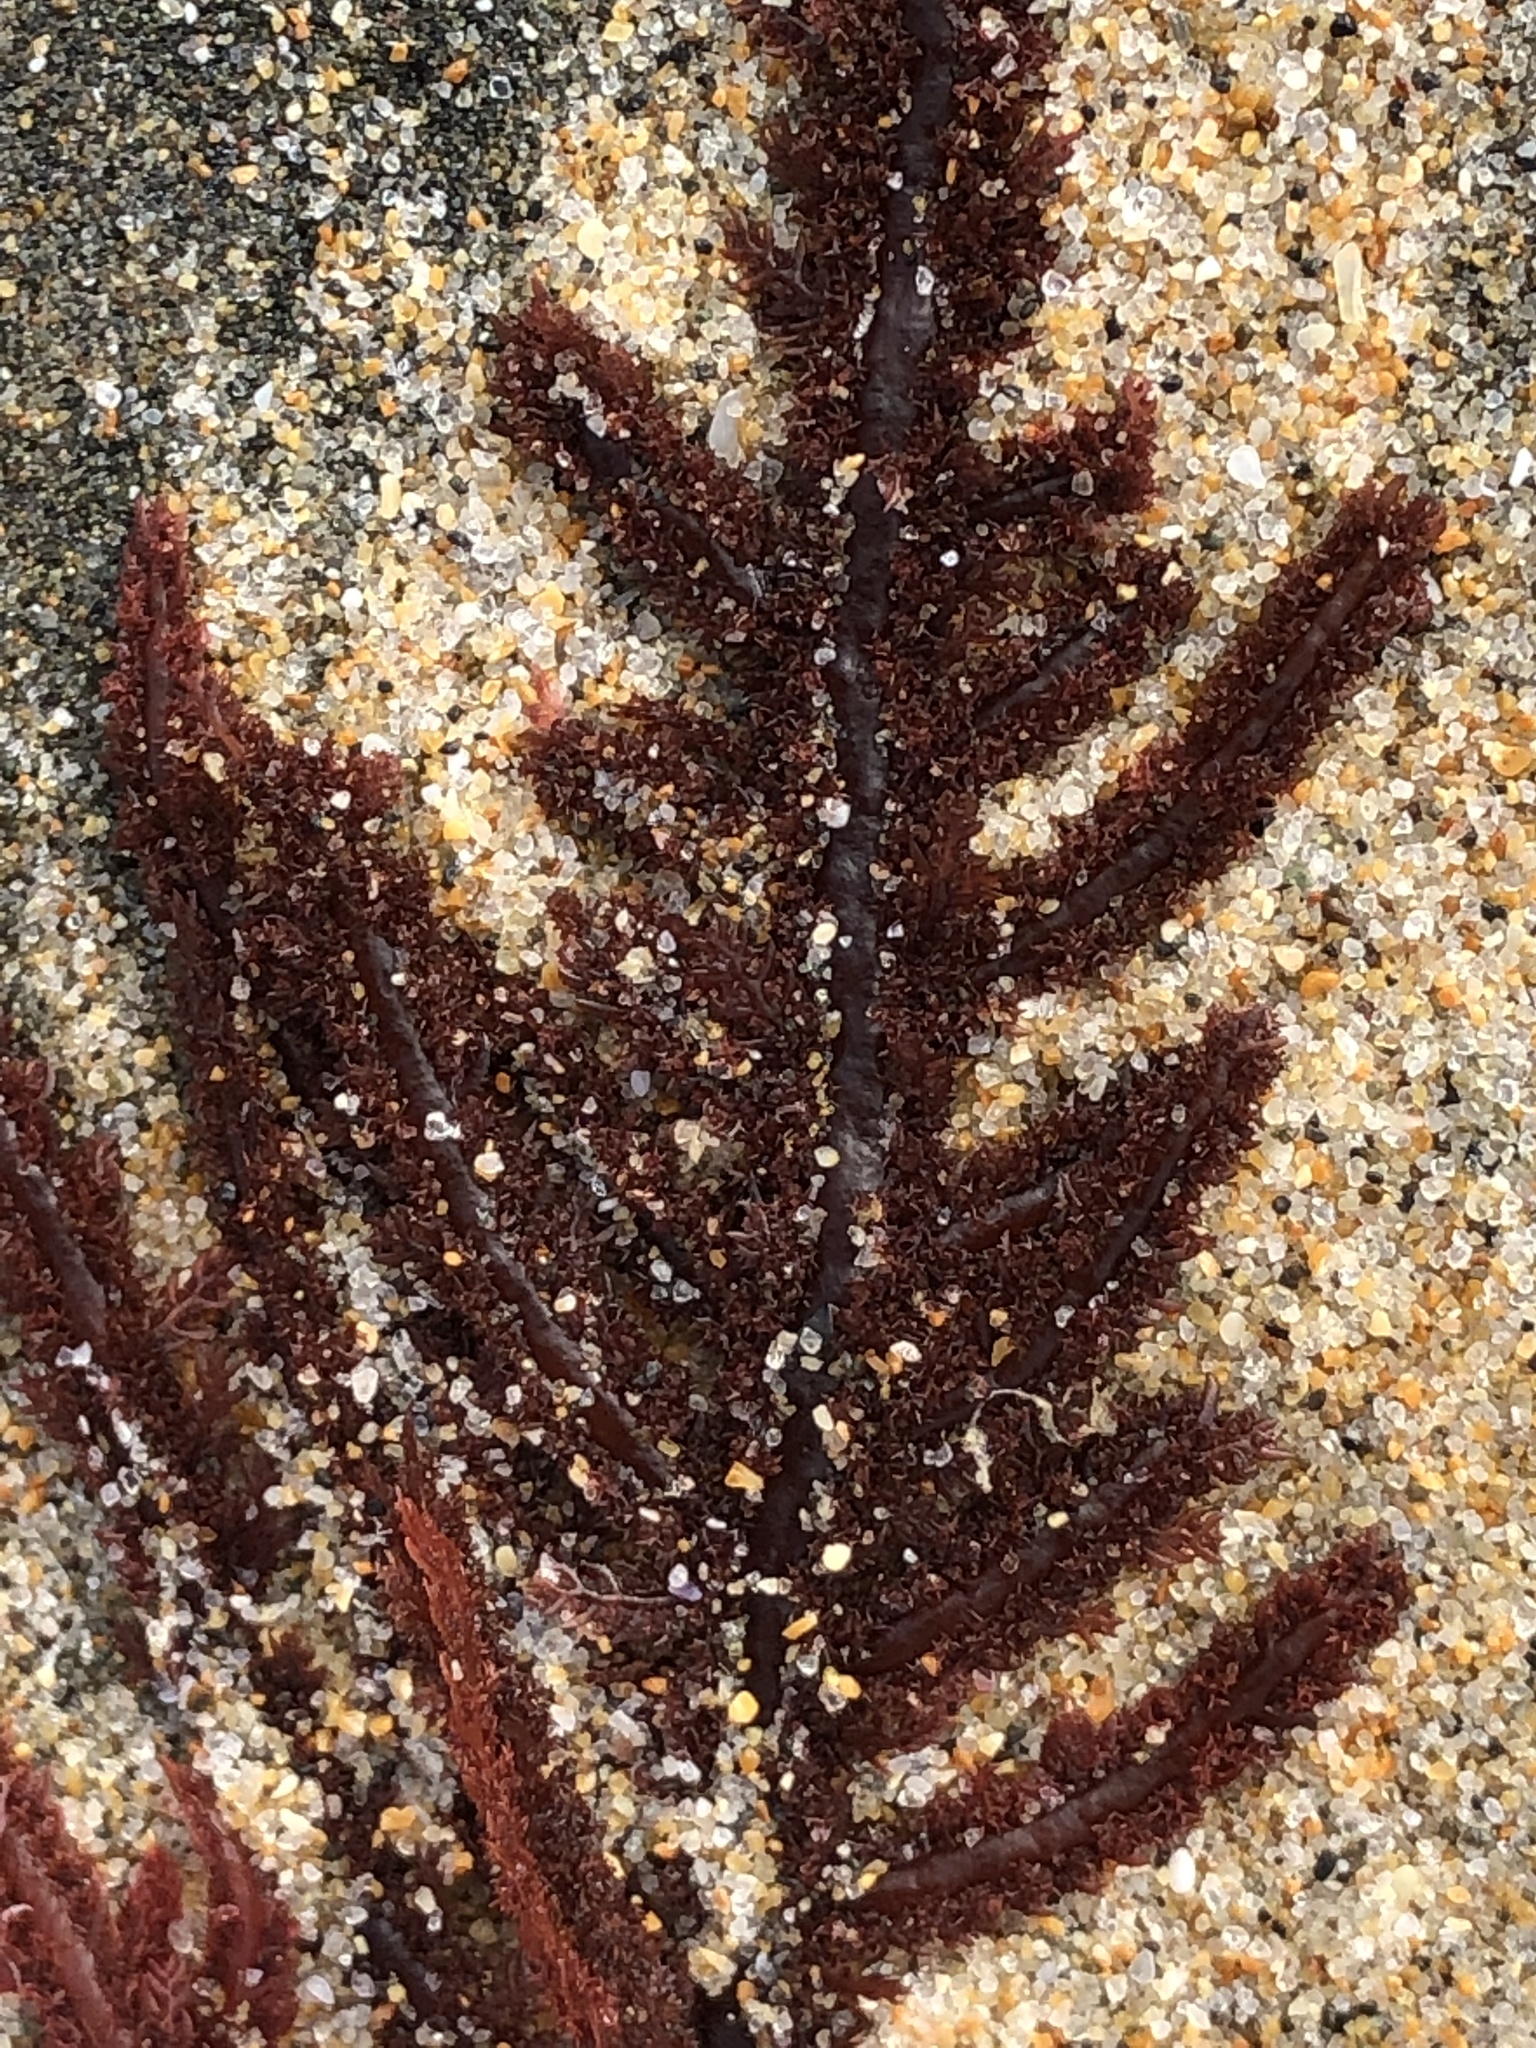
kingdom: Plantae
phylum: Rhodophyta
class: Florideophyceae
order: Ceramiales
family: Wrangeliaceae
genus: Neoptilota
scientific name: Neoptilota densa
